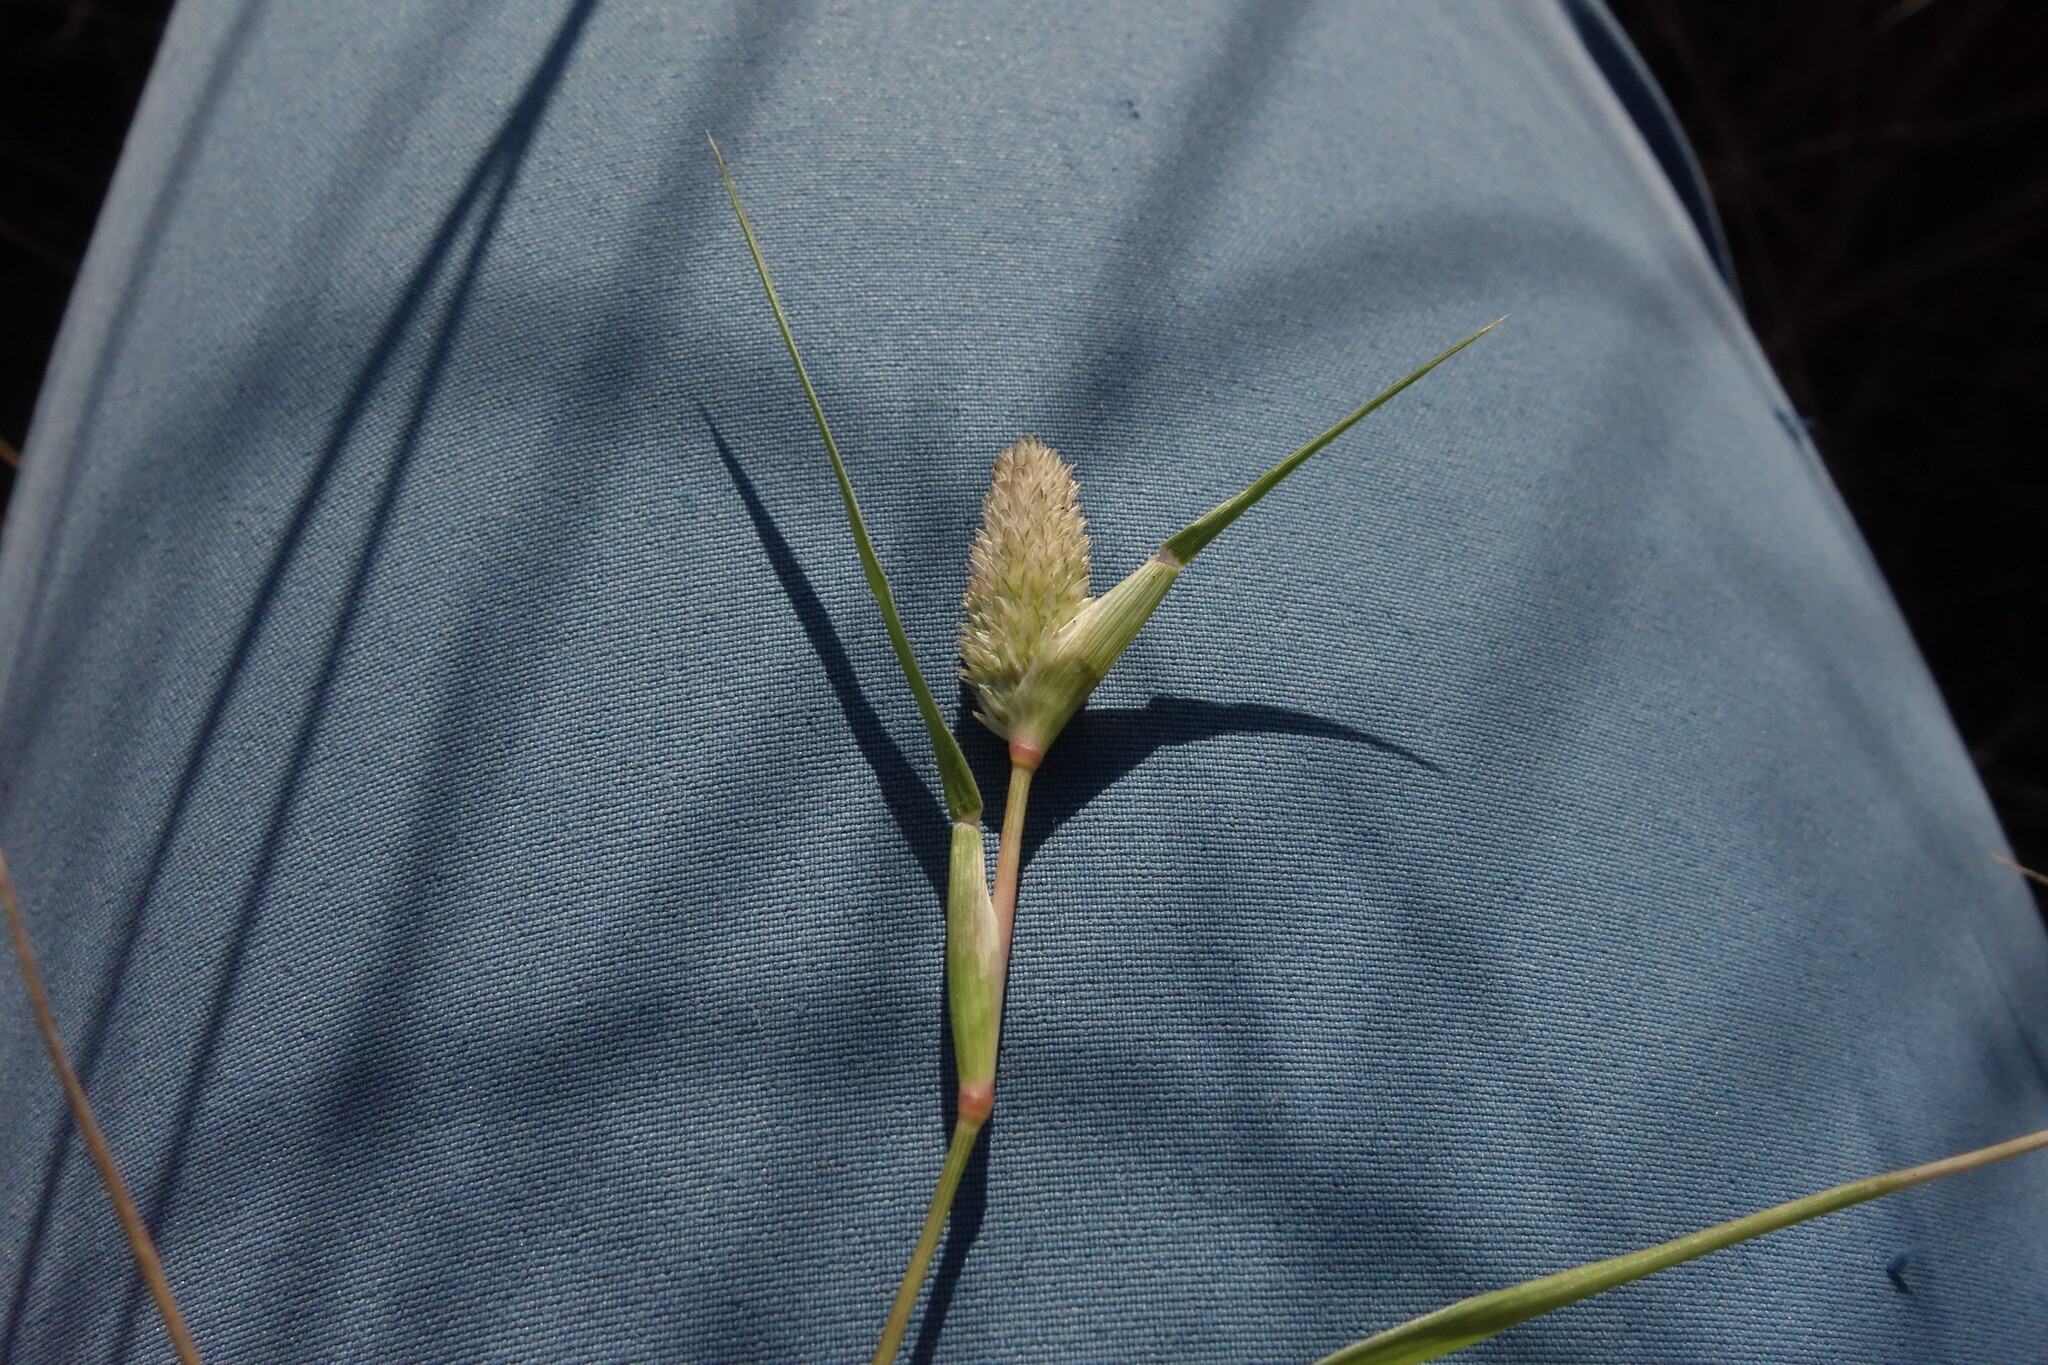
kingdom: Plantae
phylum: Tracheophyta
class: Liliopsida
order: Poales
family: Poaceae
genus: Sporobolus
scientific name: Sporobolus schoenoides
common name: Rush-like timothy
